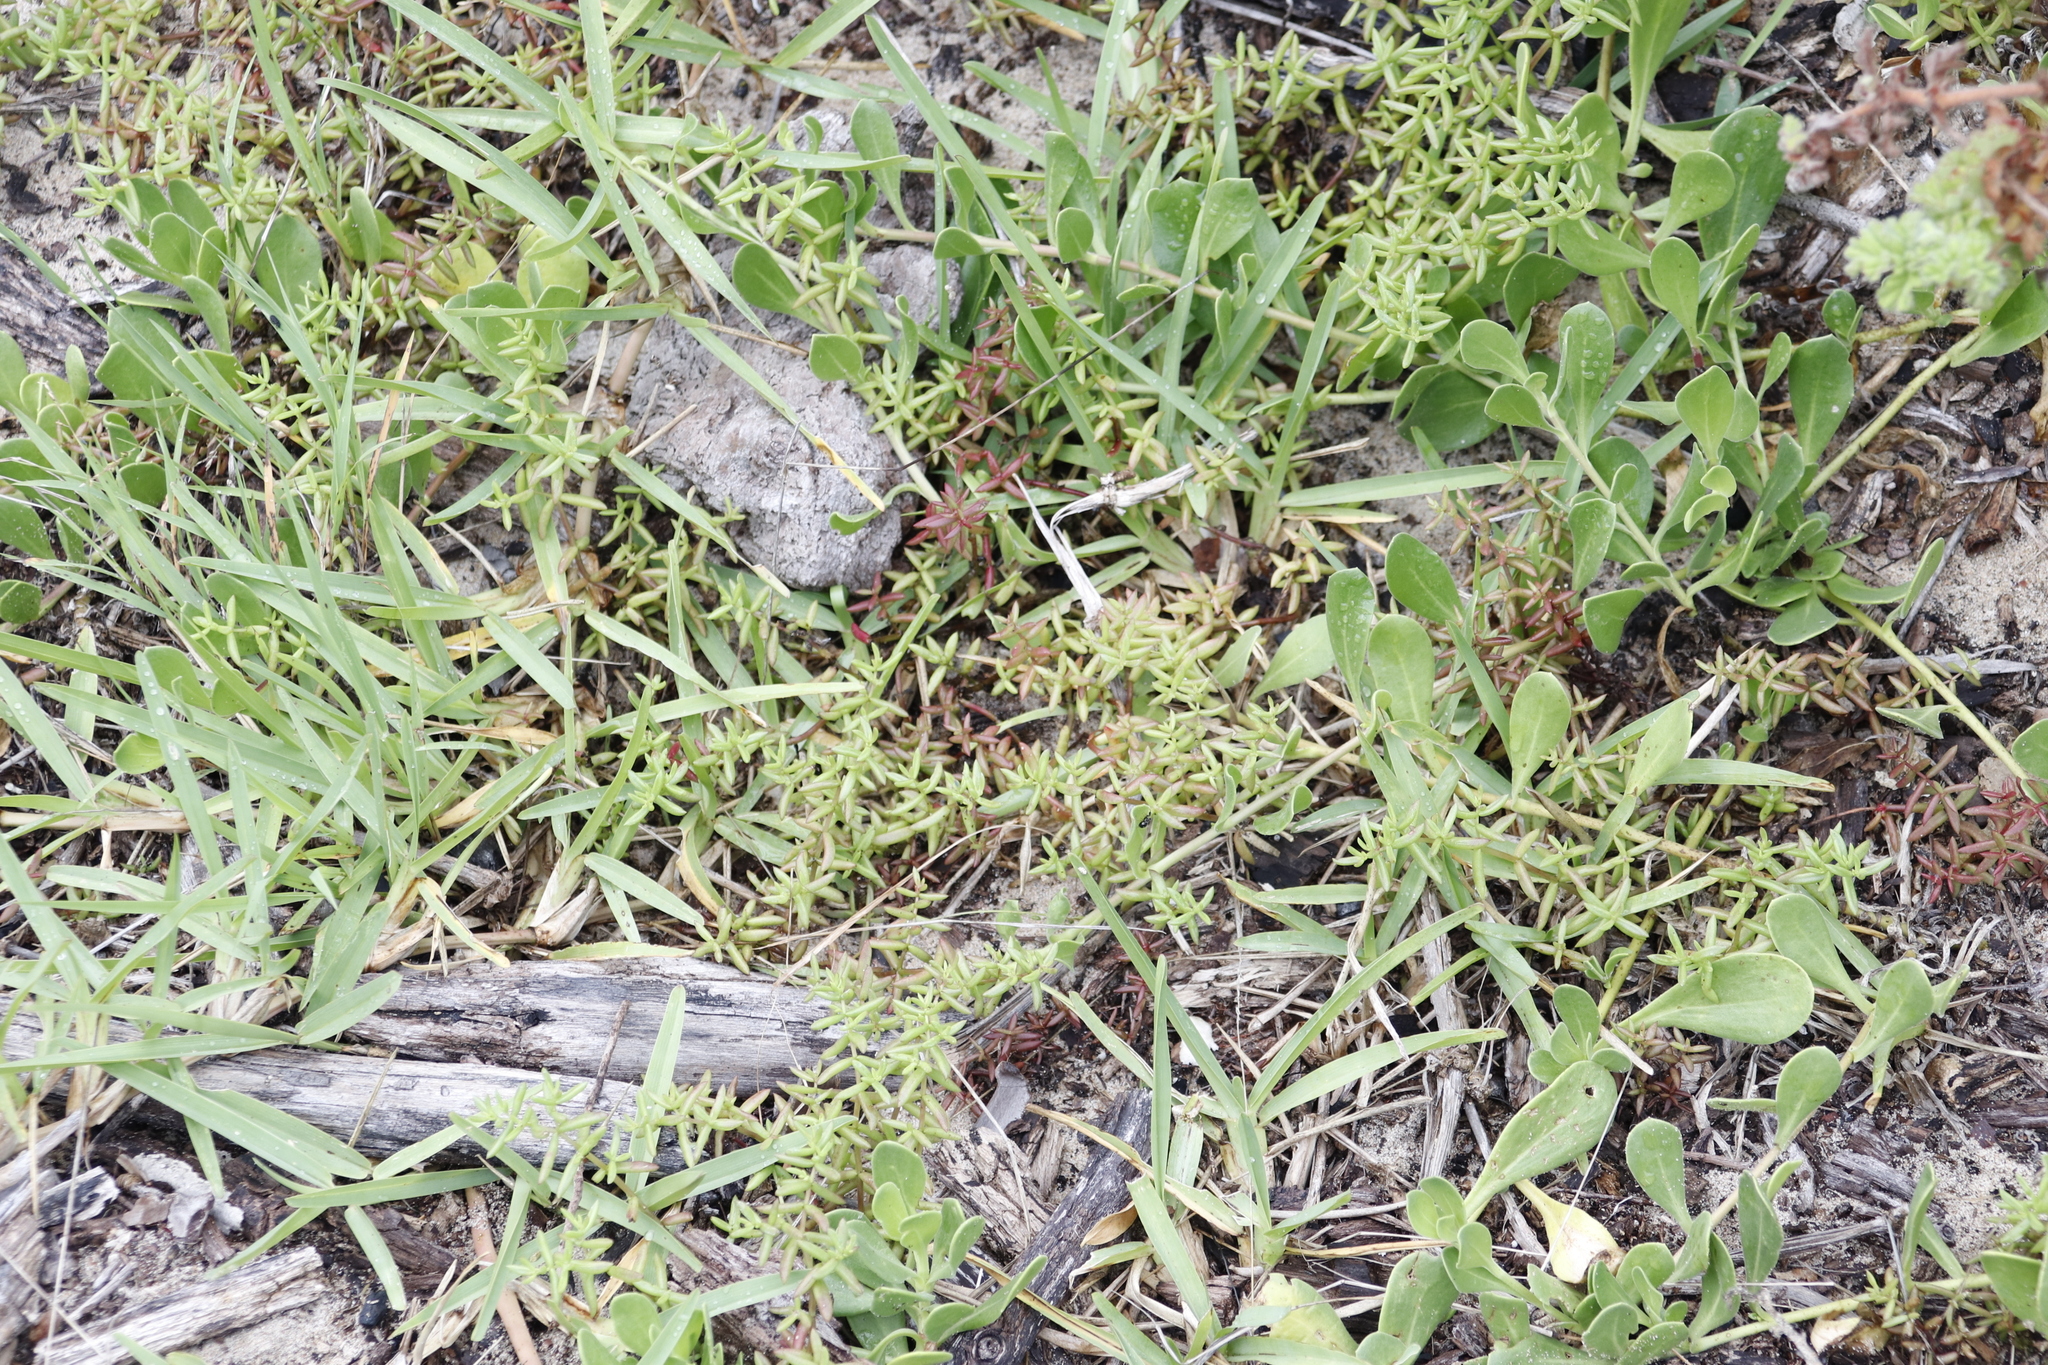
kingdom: Plantae
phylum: Tracheophyta
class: Magnoliopsida
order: Saxifragales
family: Crassulaceae
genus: Crassula
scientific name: Crassula expansa
